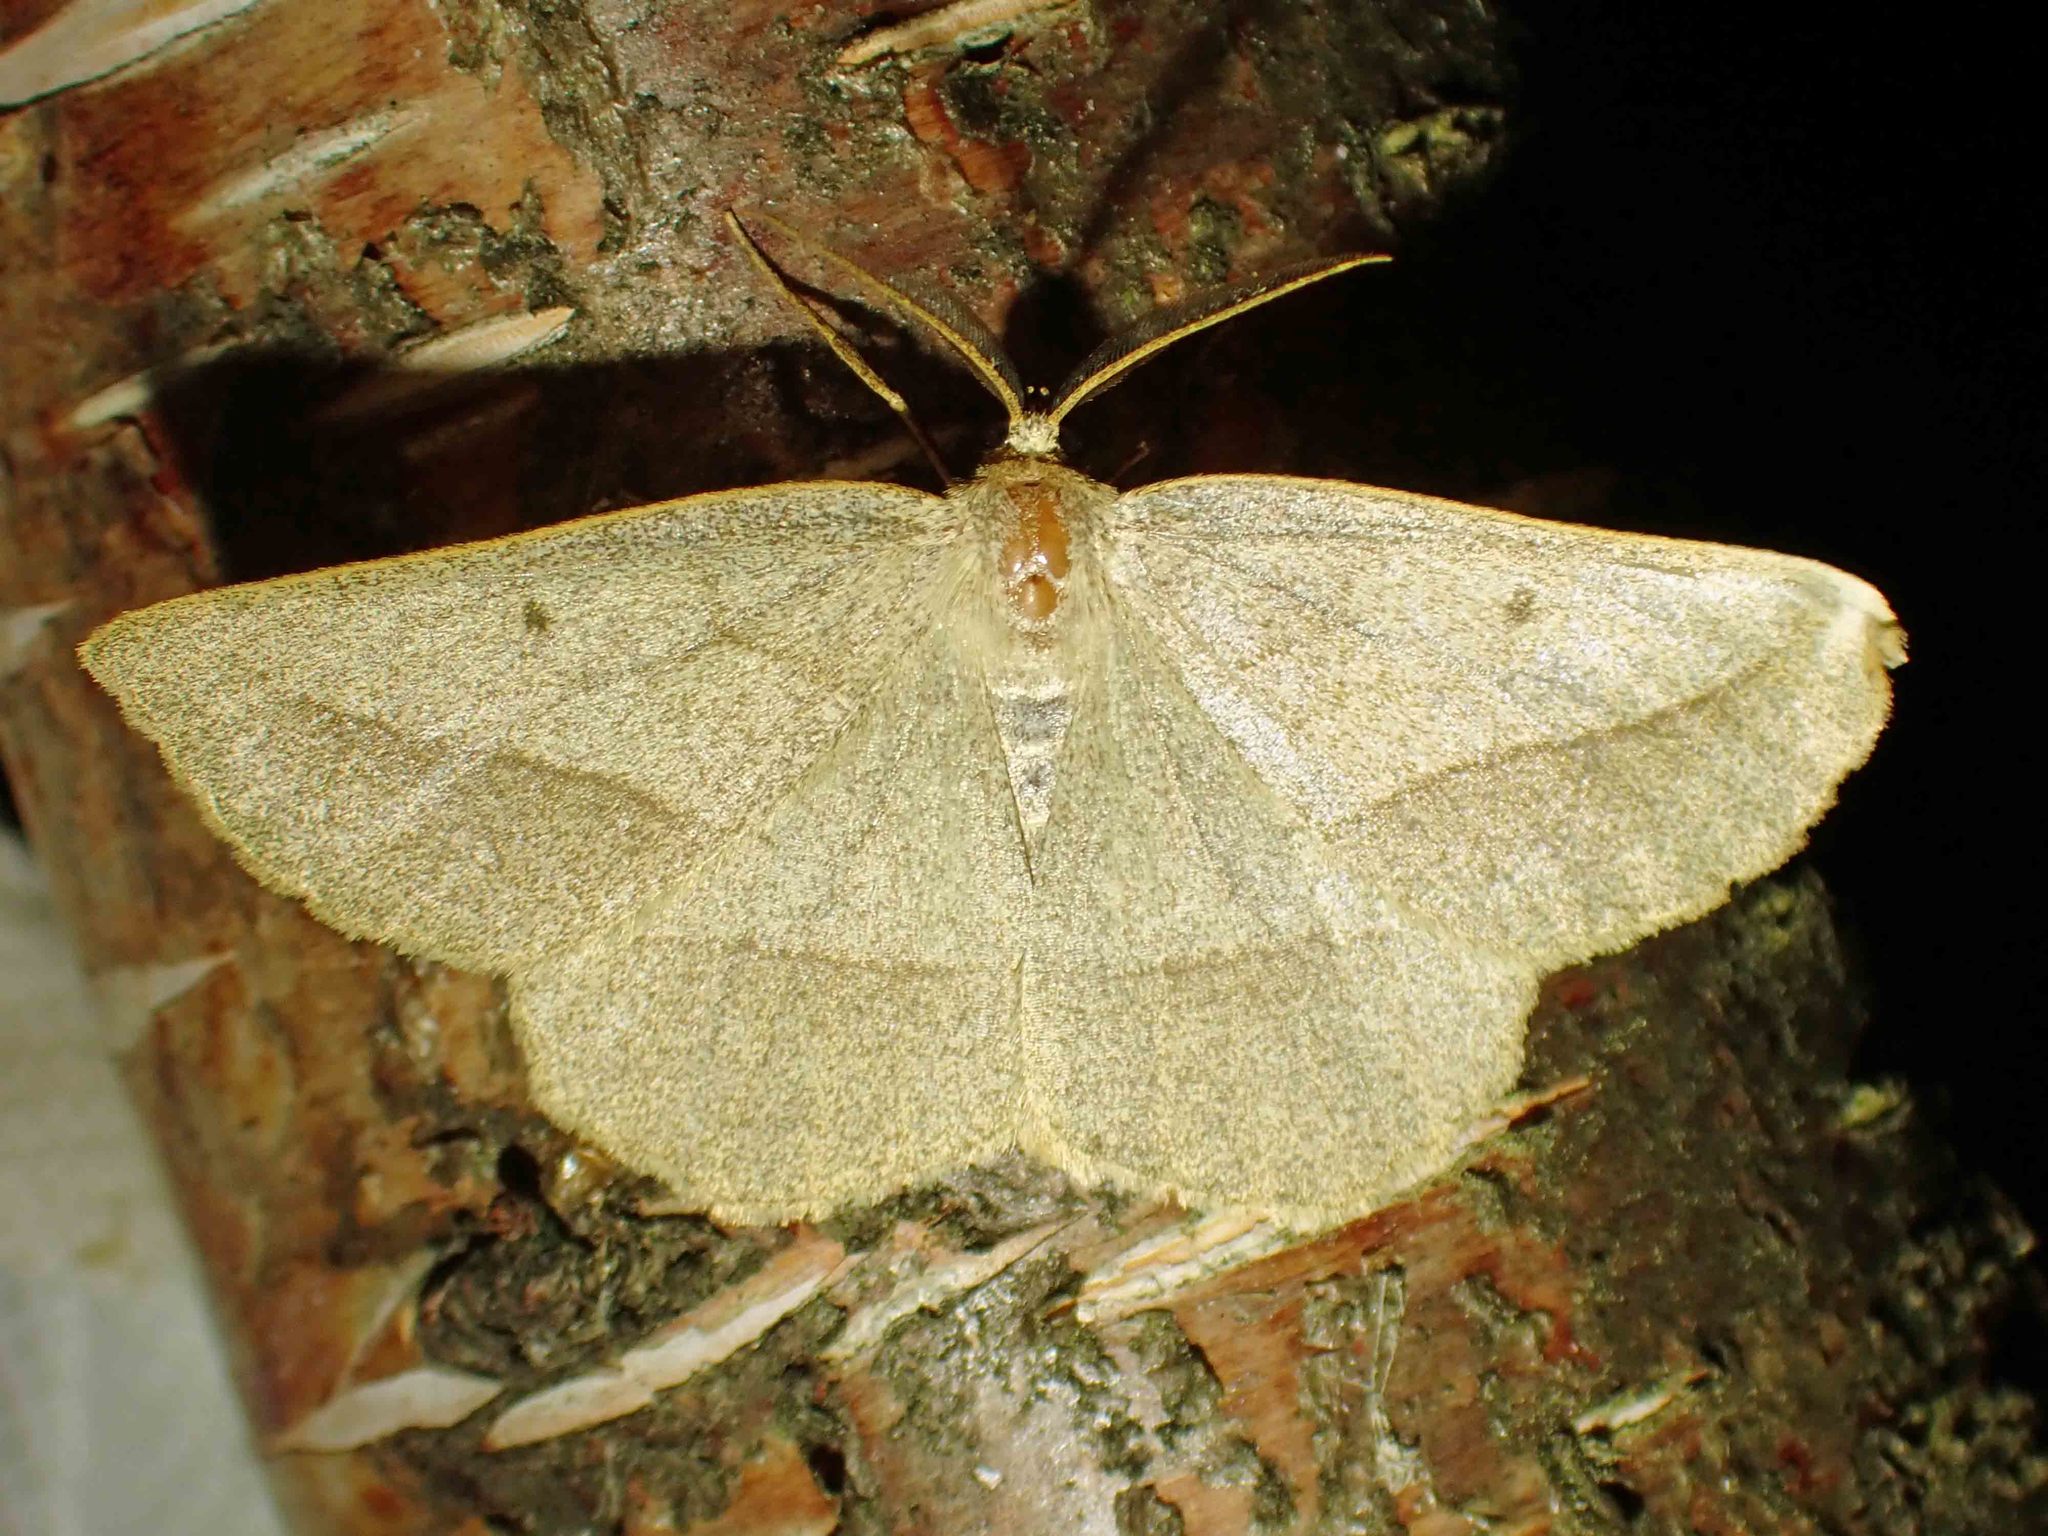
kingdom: Animalia
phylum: Arthropoda
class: Insecta
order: Lepidoptera
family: Geometridae
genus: Euchlaena
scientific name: Euchlaena irraria
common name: Least-marked euchlaena
